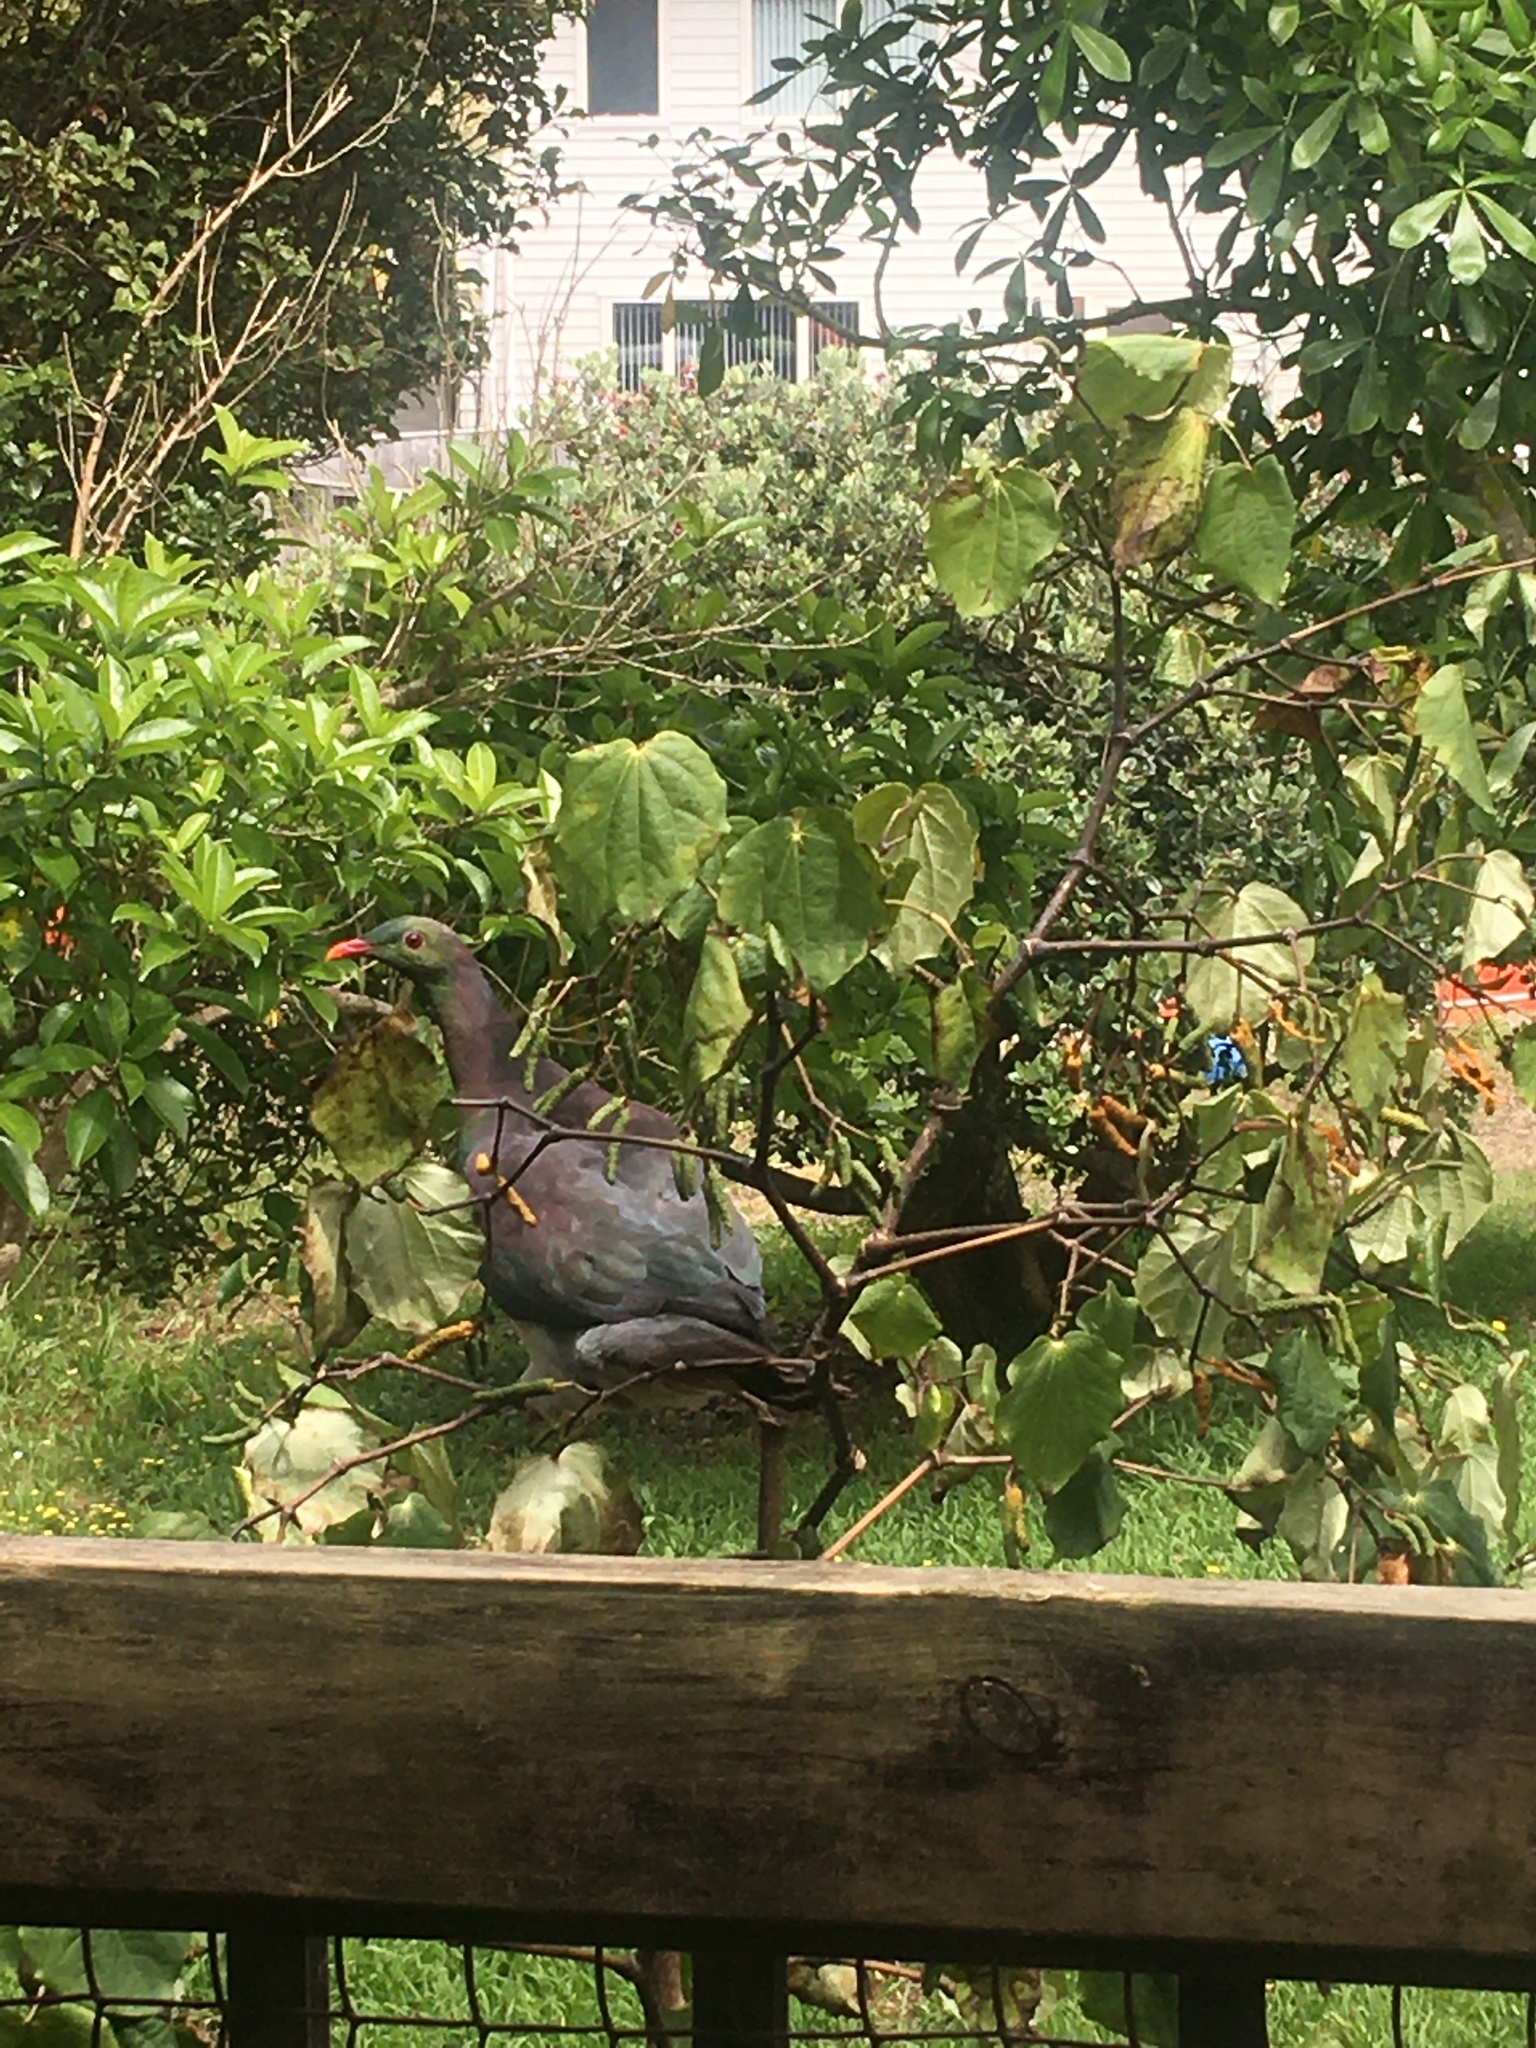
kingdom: Animalia
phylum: Chordata
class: Aves
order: Columbiformes
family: Columbidae
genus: Hemiphaga
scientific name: Hemiphaga novaeseelandiae
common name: New zealand pigeon
